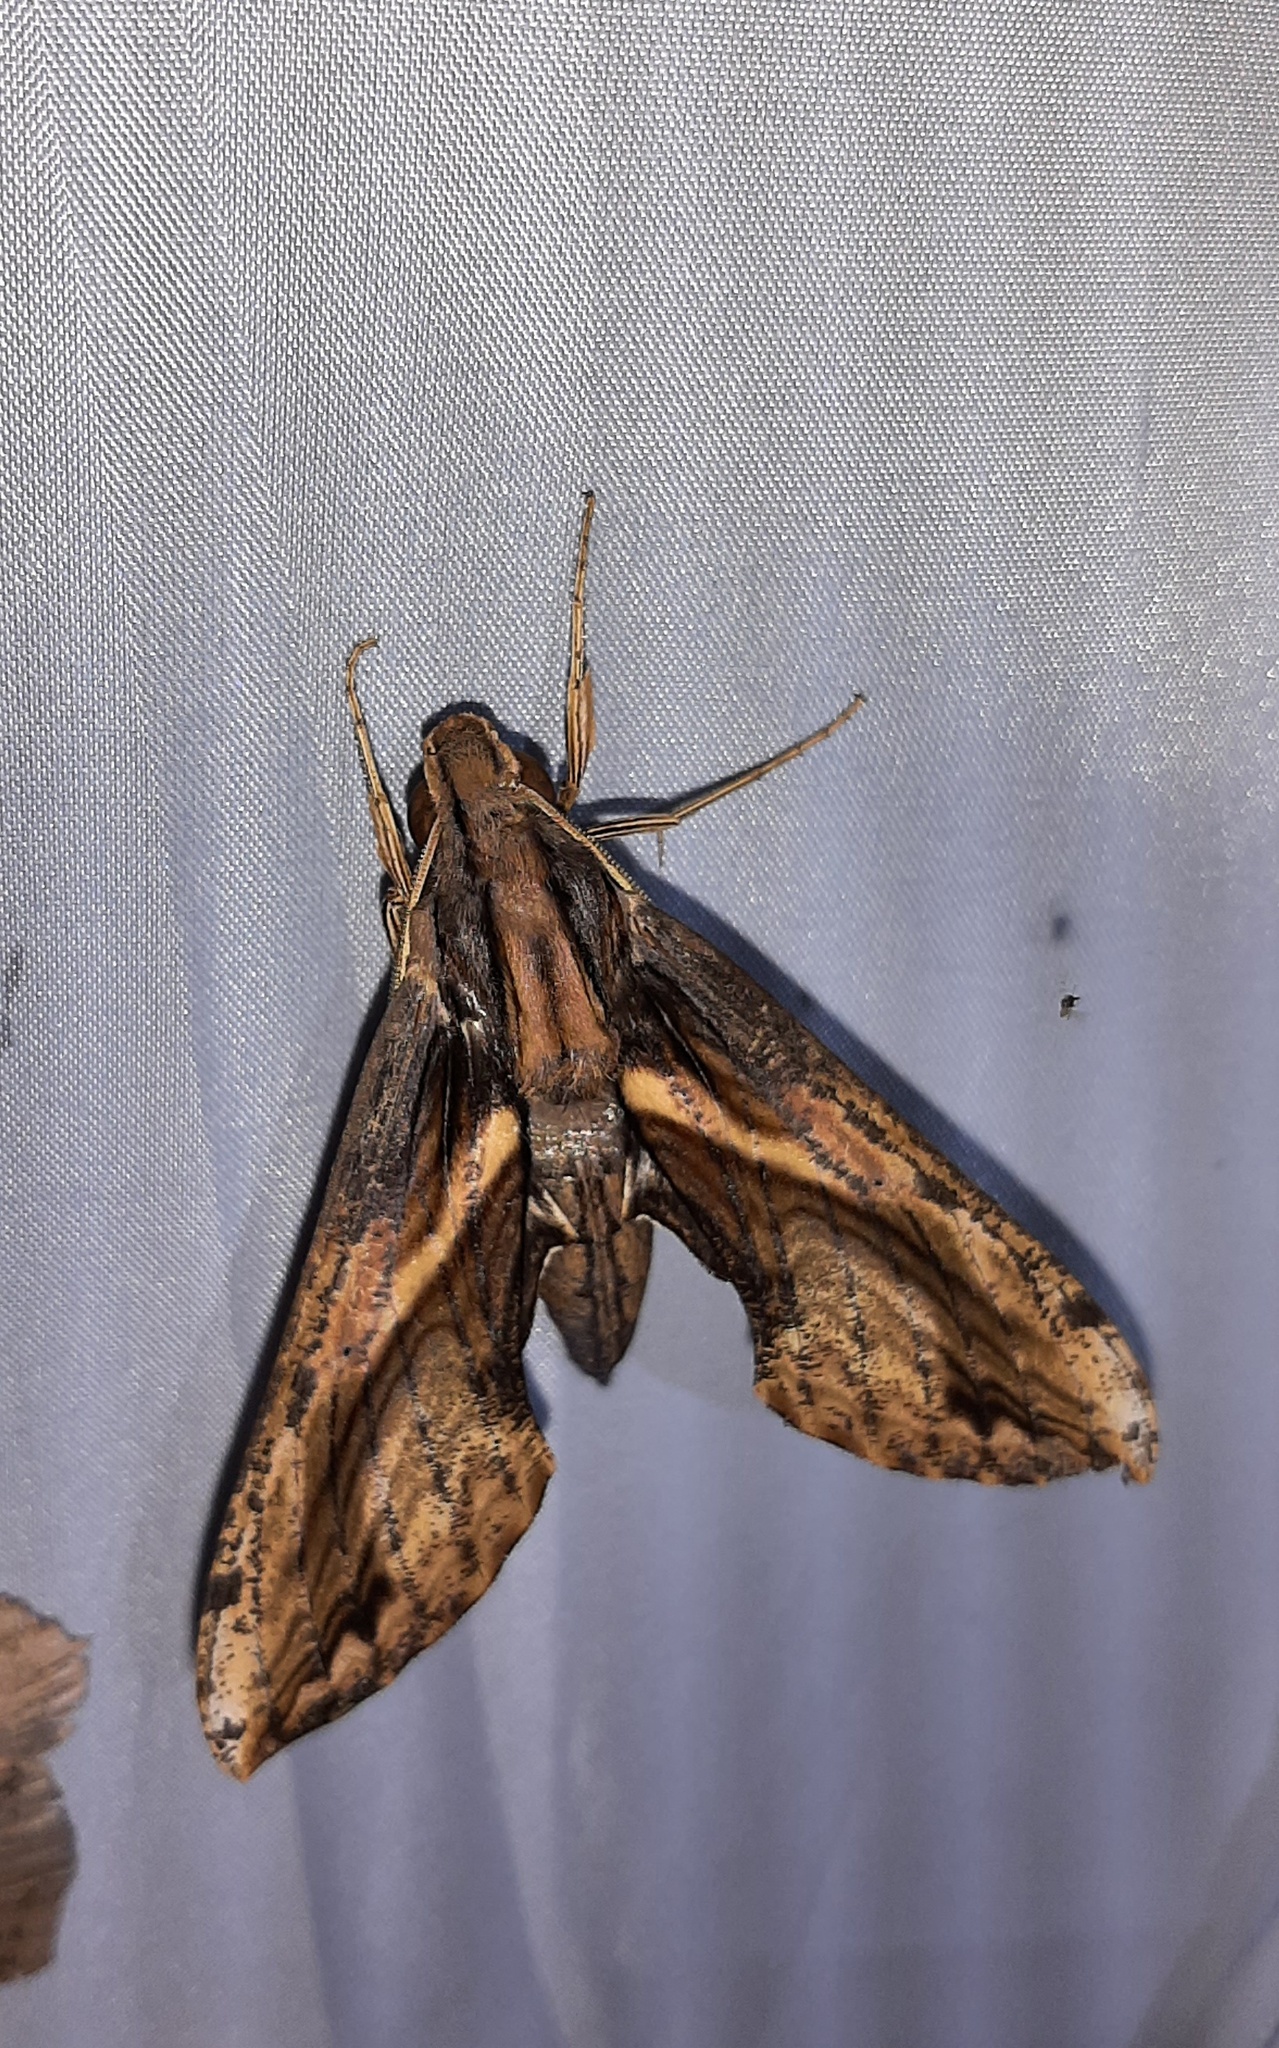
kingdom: Animalia
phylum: Arthropoda
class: Insecta
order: Lepidoptera
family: Sphingidae
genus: Xylophanes
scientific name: Xylophanes ceratomioides
